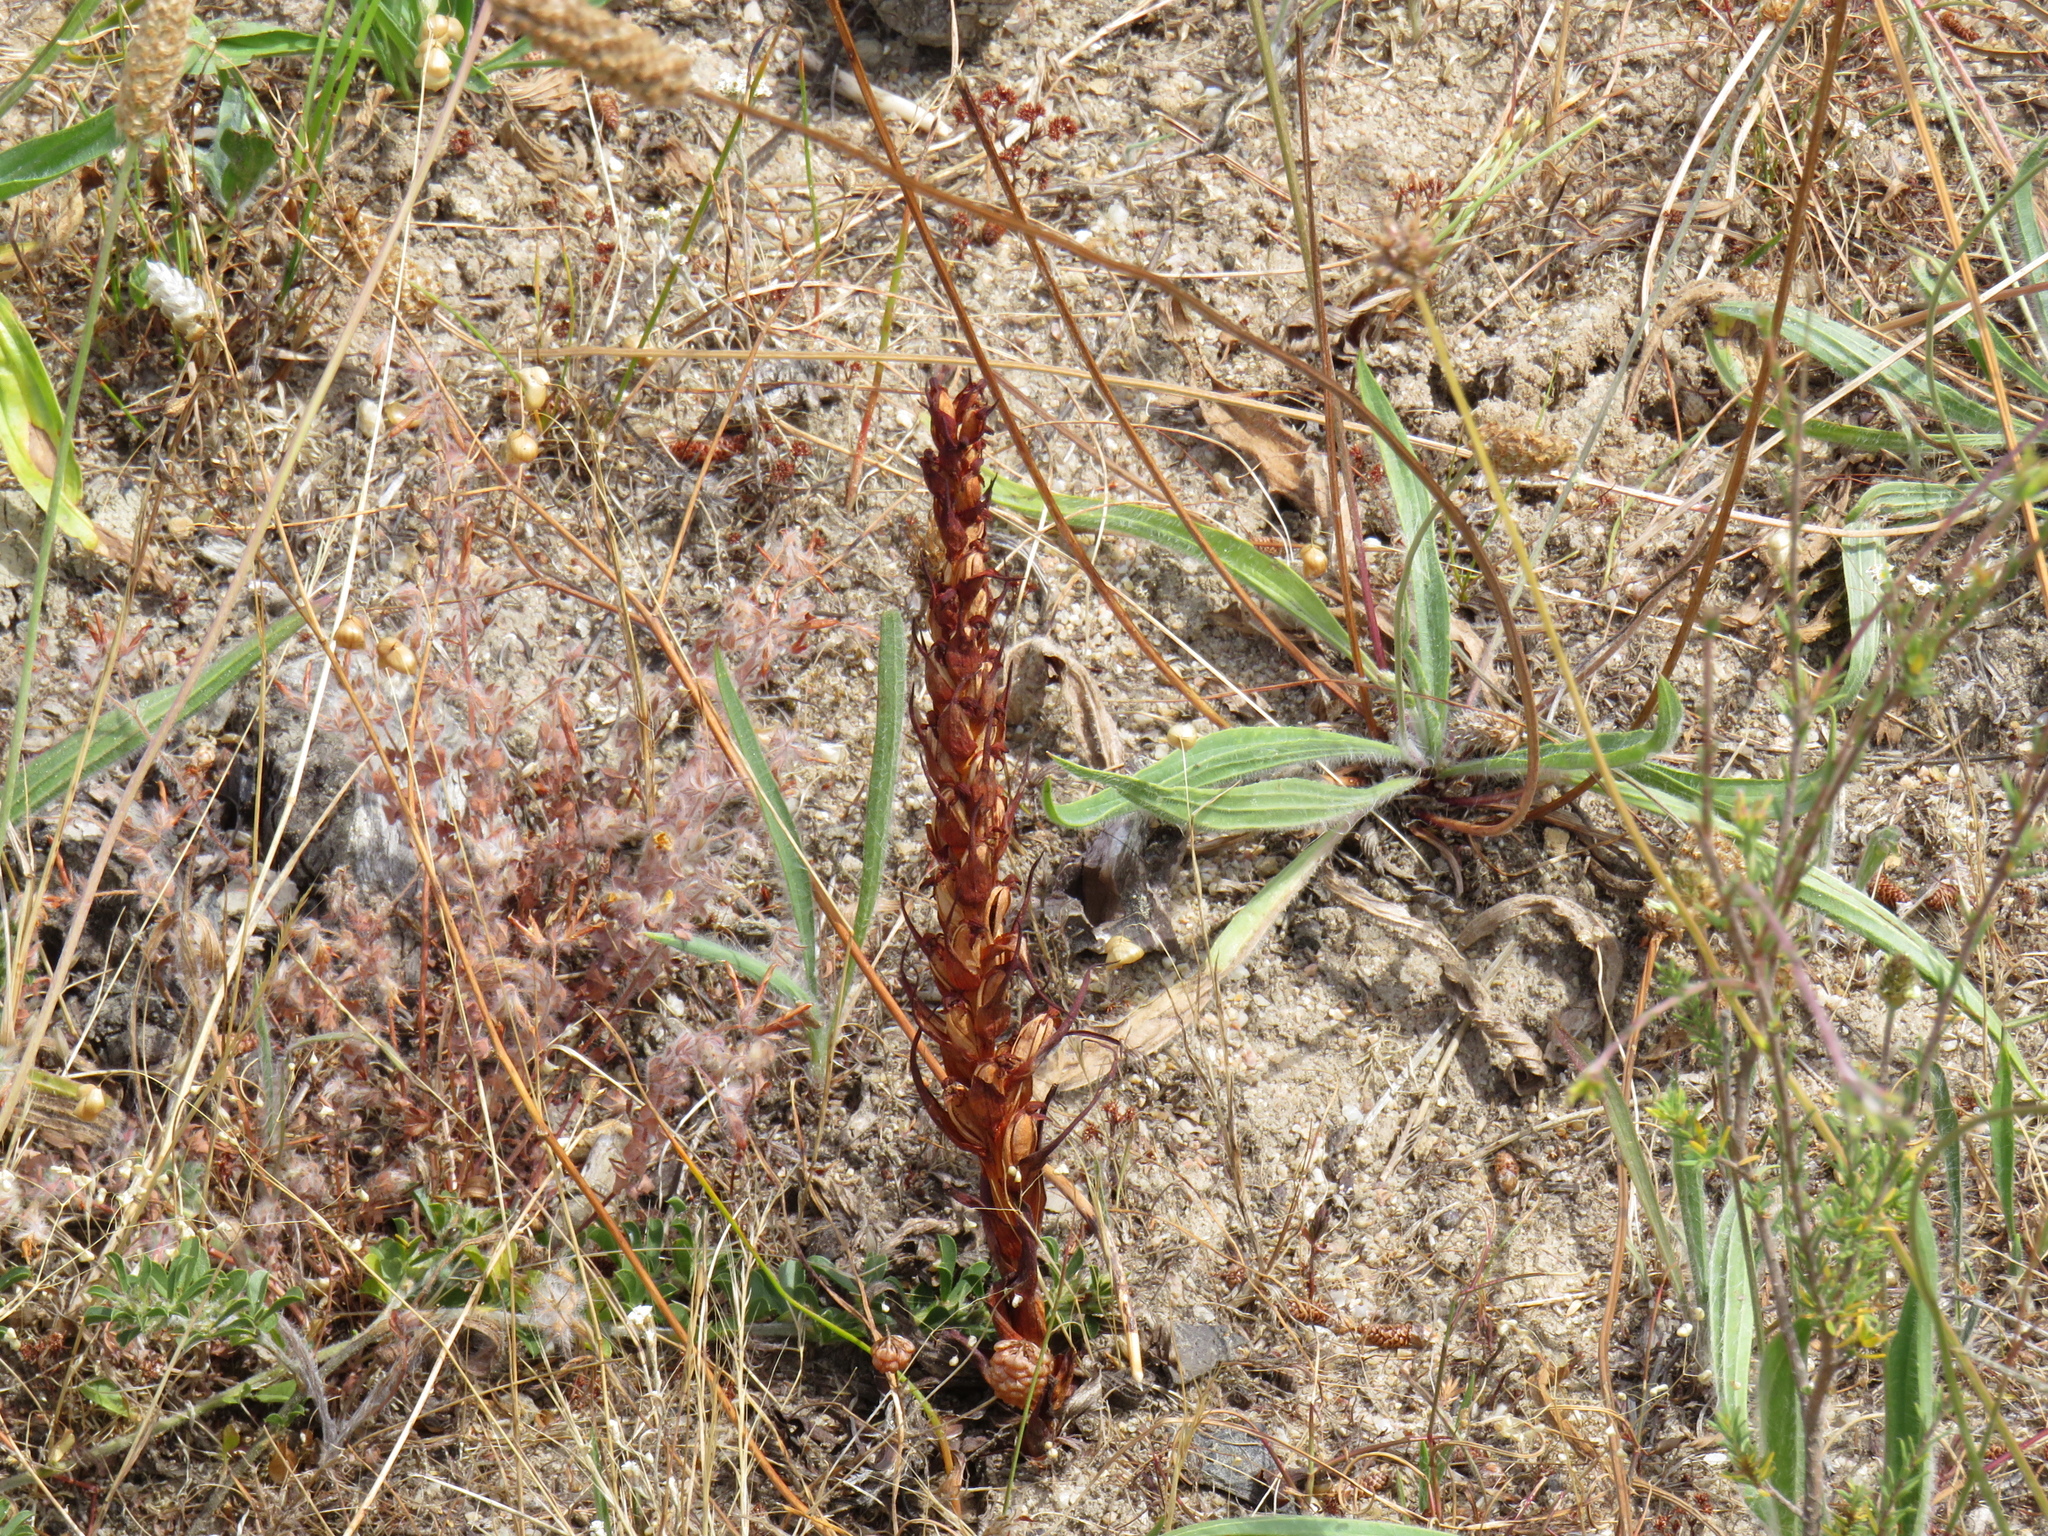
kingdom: Plantae
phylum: Tracheophyta
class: Liliopsida
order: Asparagales
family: Orchidaceae
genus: Disa
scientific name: Disa bracteata
